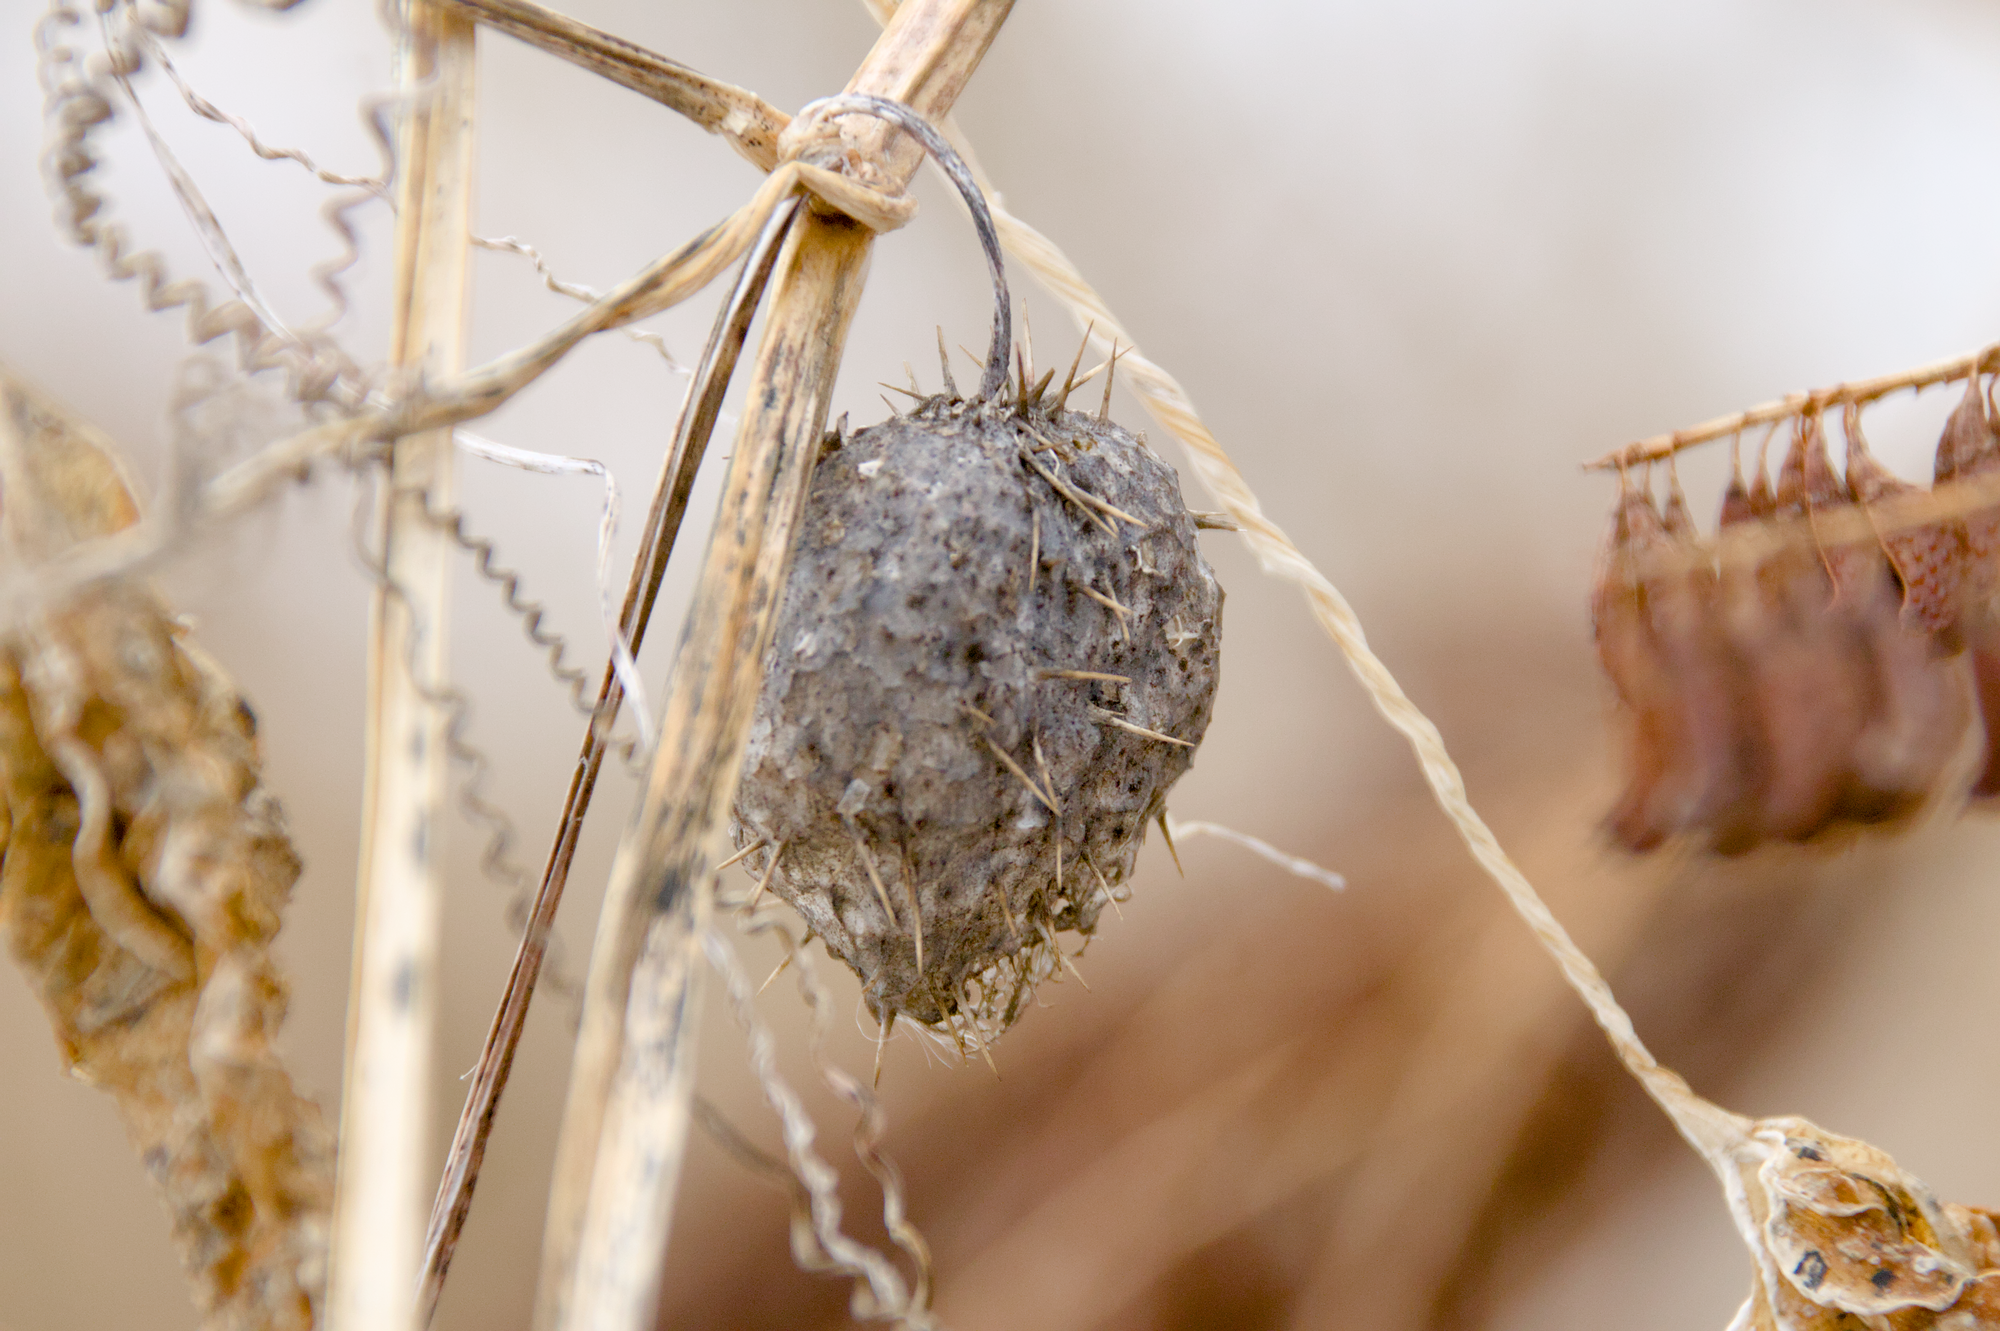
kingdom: Plantae
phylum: Tracheophyta
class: Magnoliopsida
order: Cucurbitales
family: Cucurbitaceae
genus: Echinocystis
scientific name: Echinocystis lobata
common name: Wild cucumber
